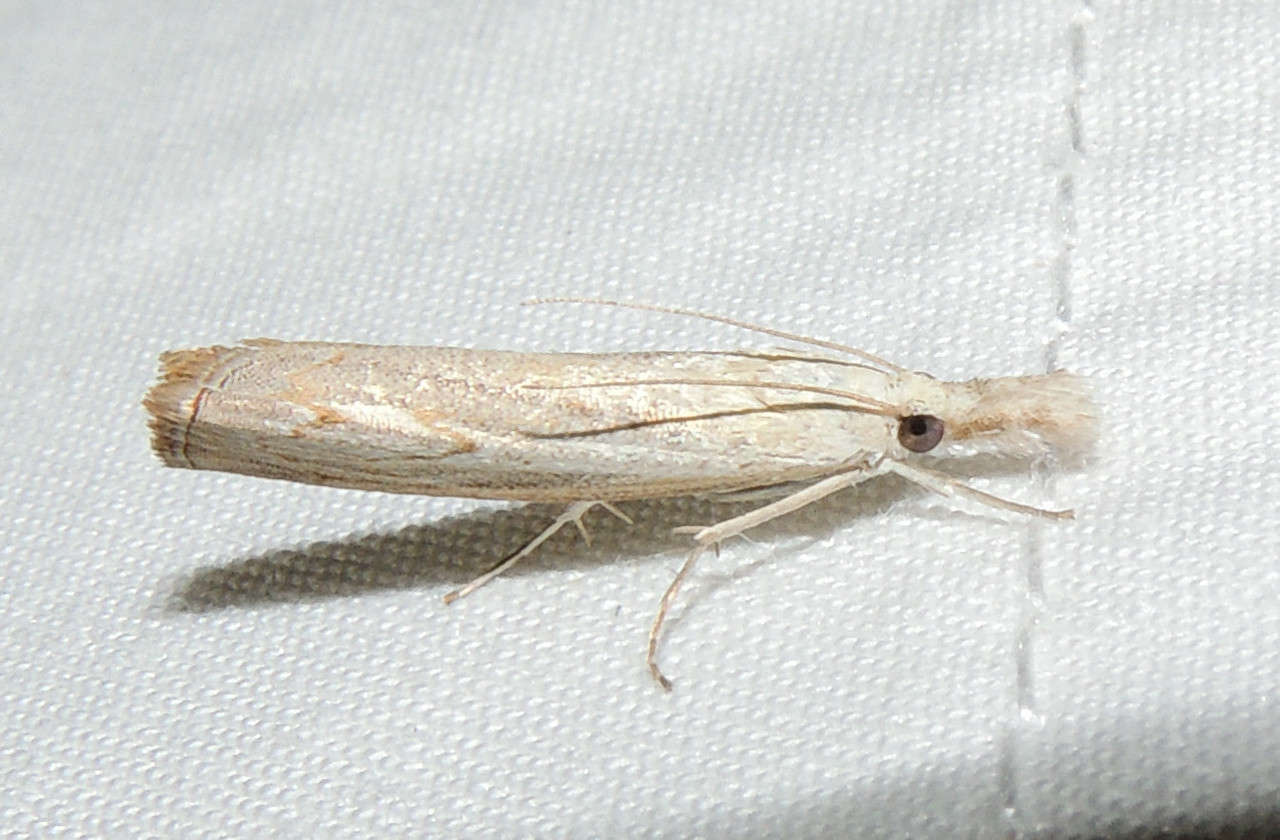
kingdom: Animalia
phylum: Arthropoda
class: Insecta
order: Lepidoptera
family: Crambidae
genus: Culladia
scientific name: Culladia cuneiferellus
